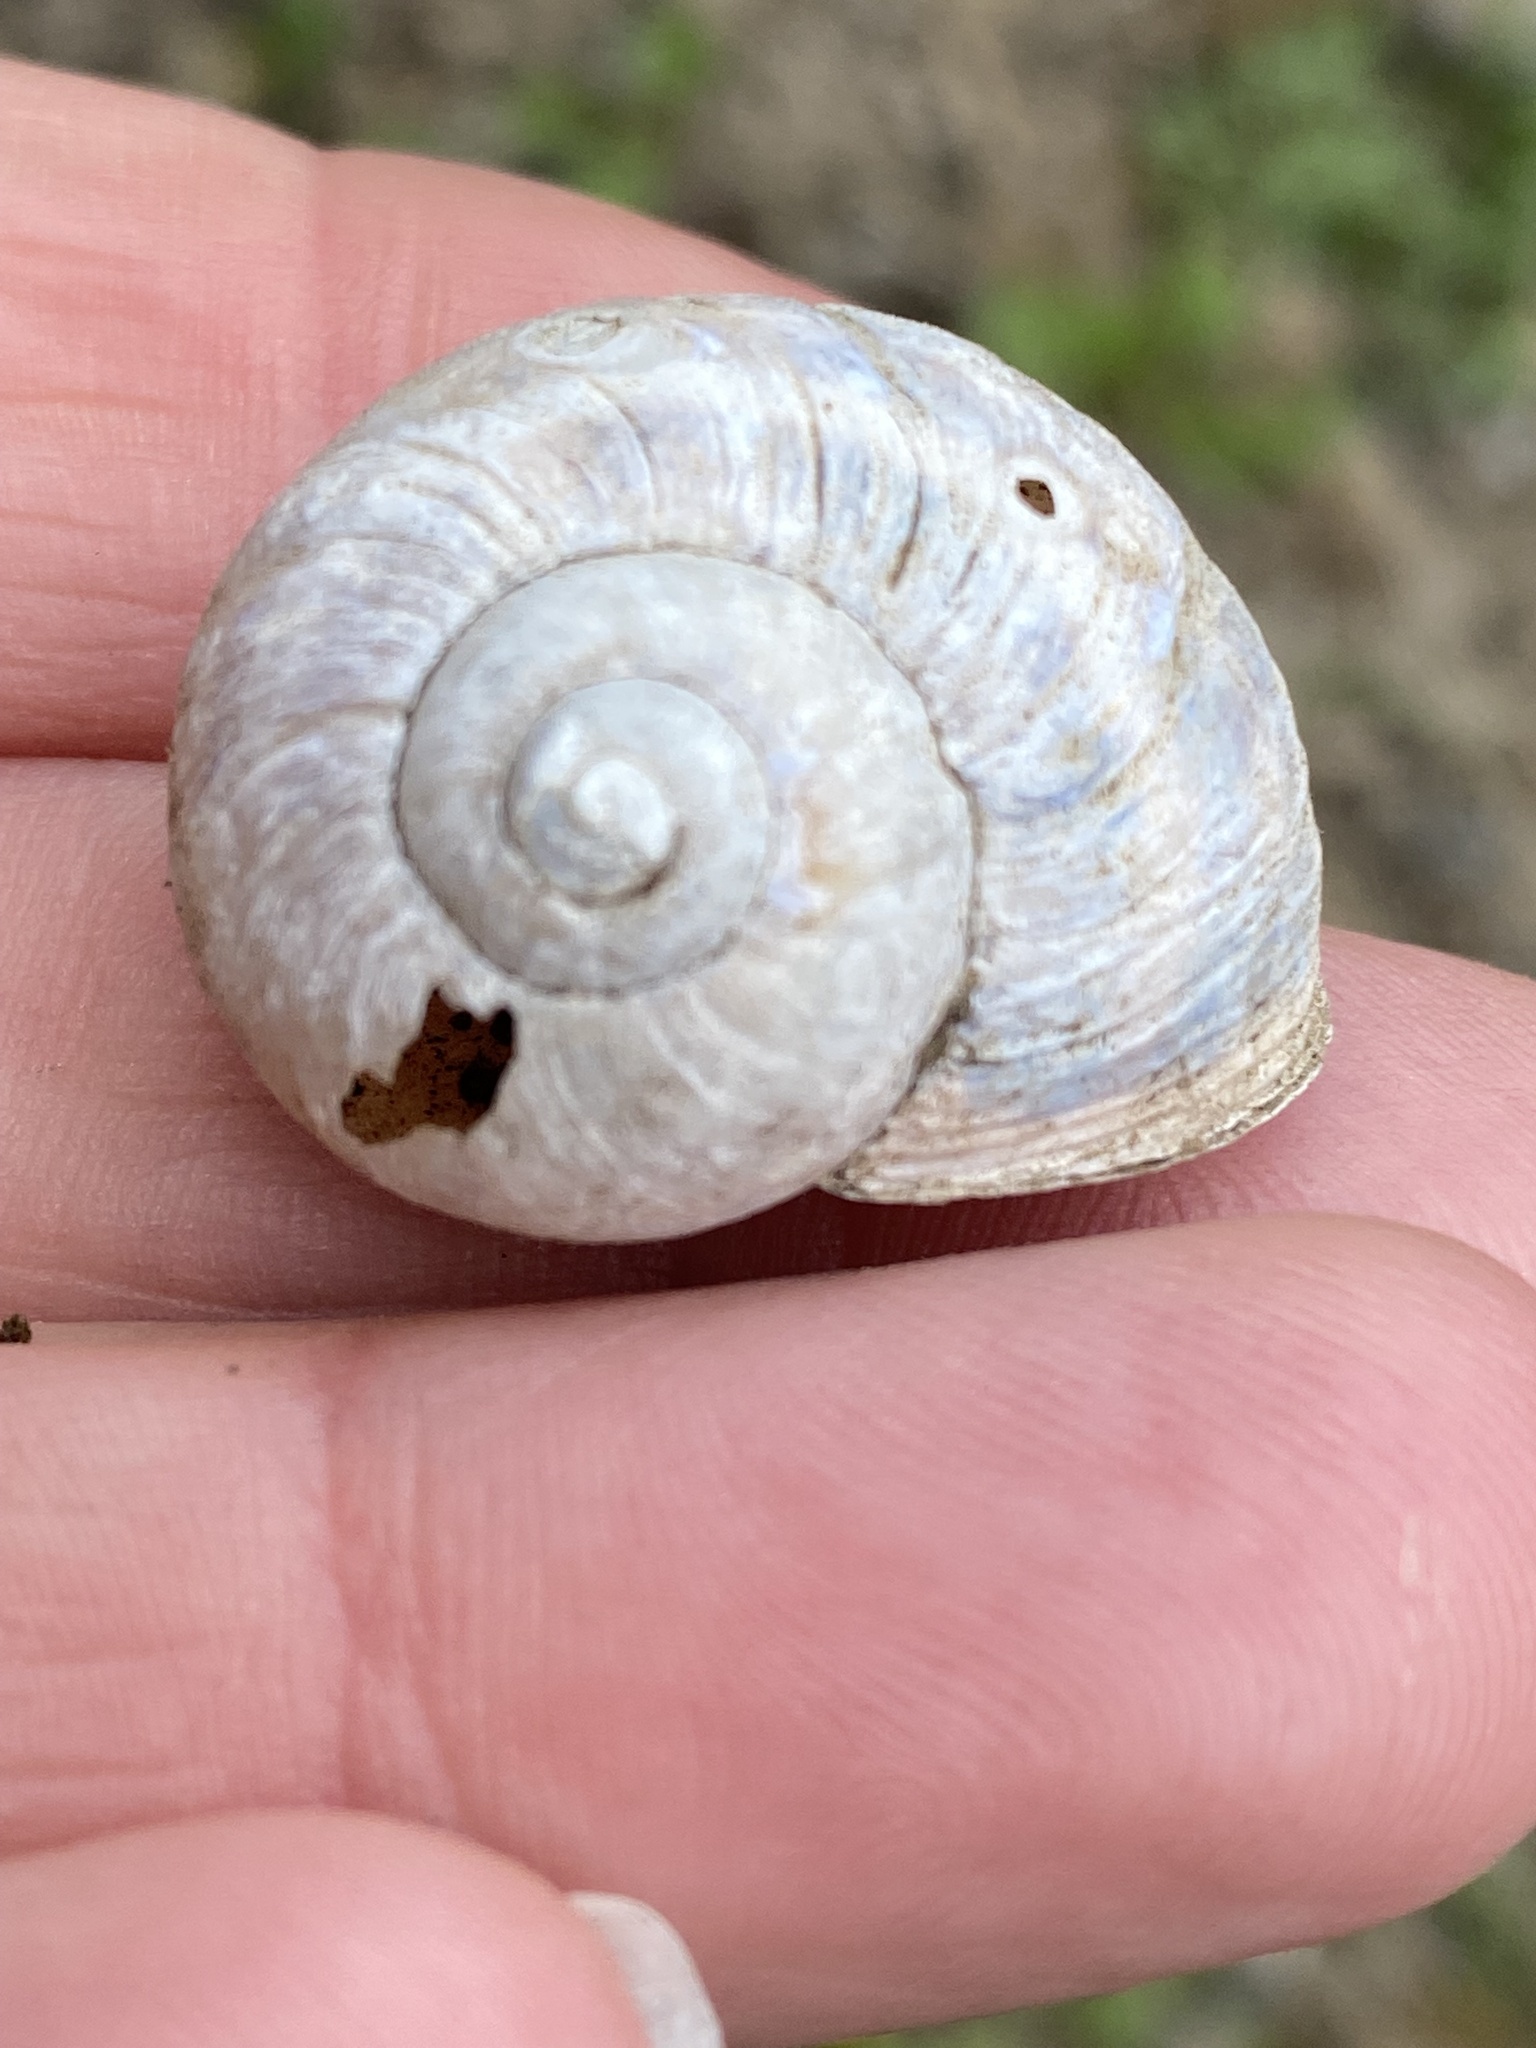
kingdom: Animalia
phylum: Mollusca
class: Gastropoda
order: Stylommatophora
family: Helicidae
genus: Cornu
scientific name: Cornu aspersum
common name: Brown garden snail
